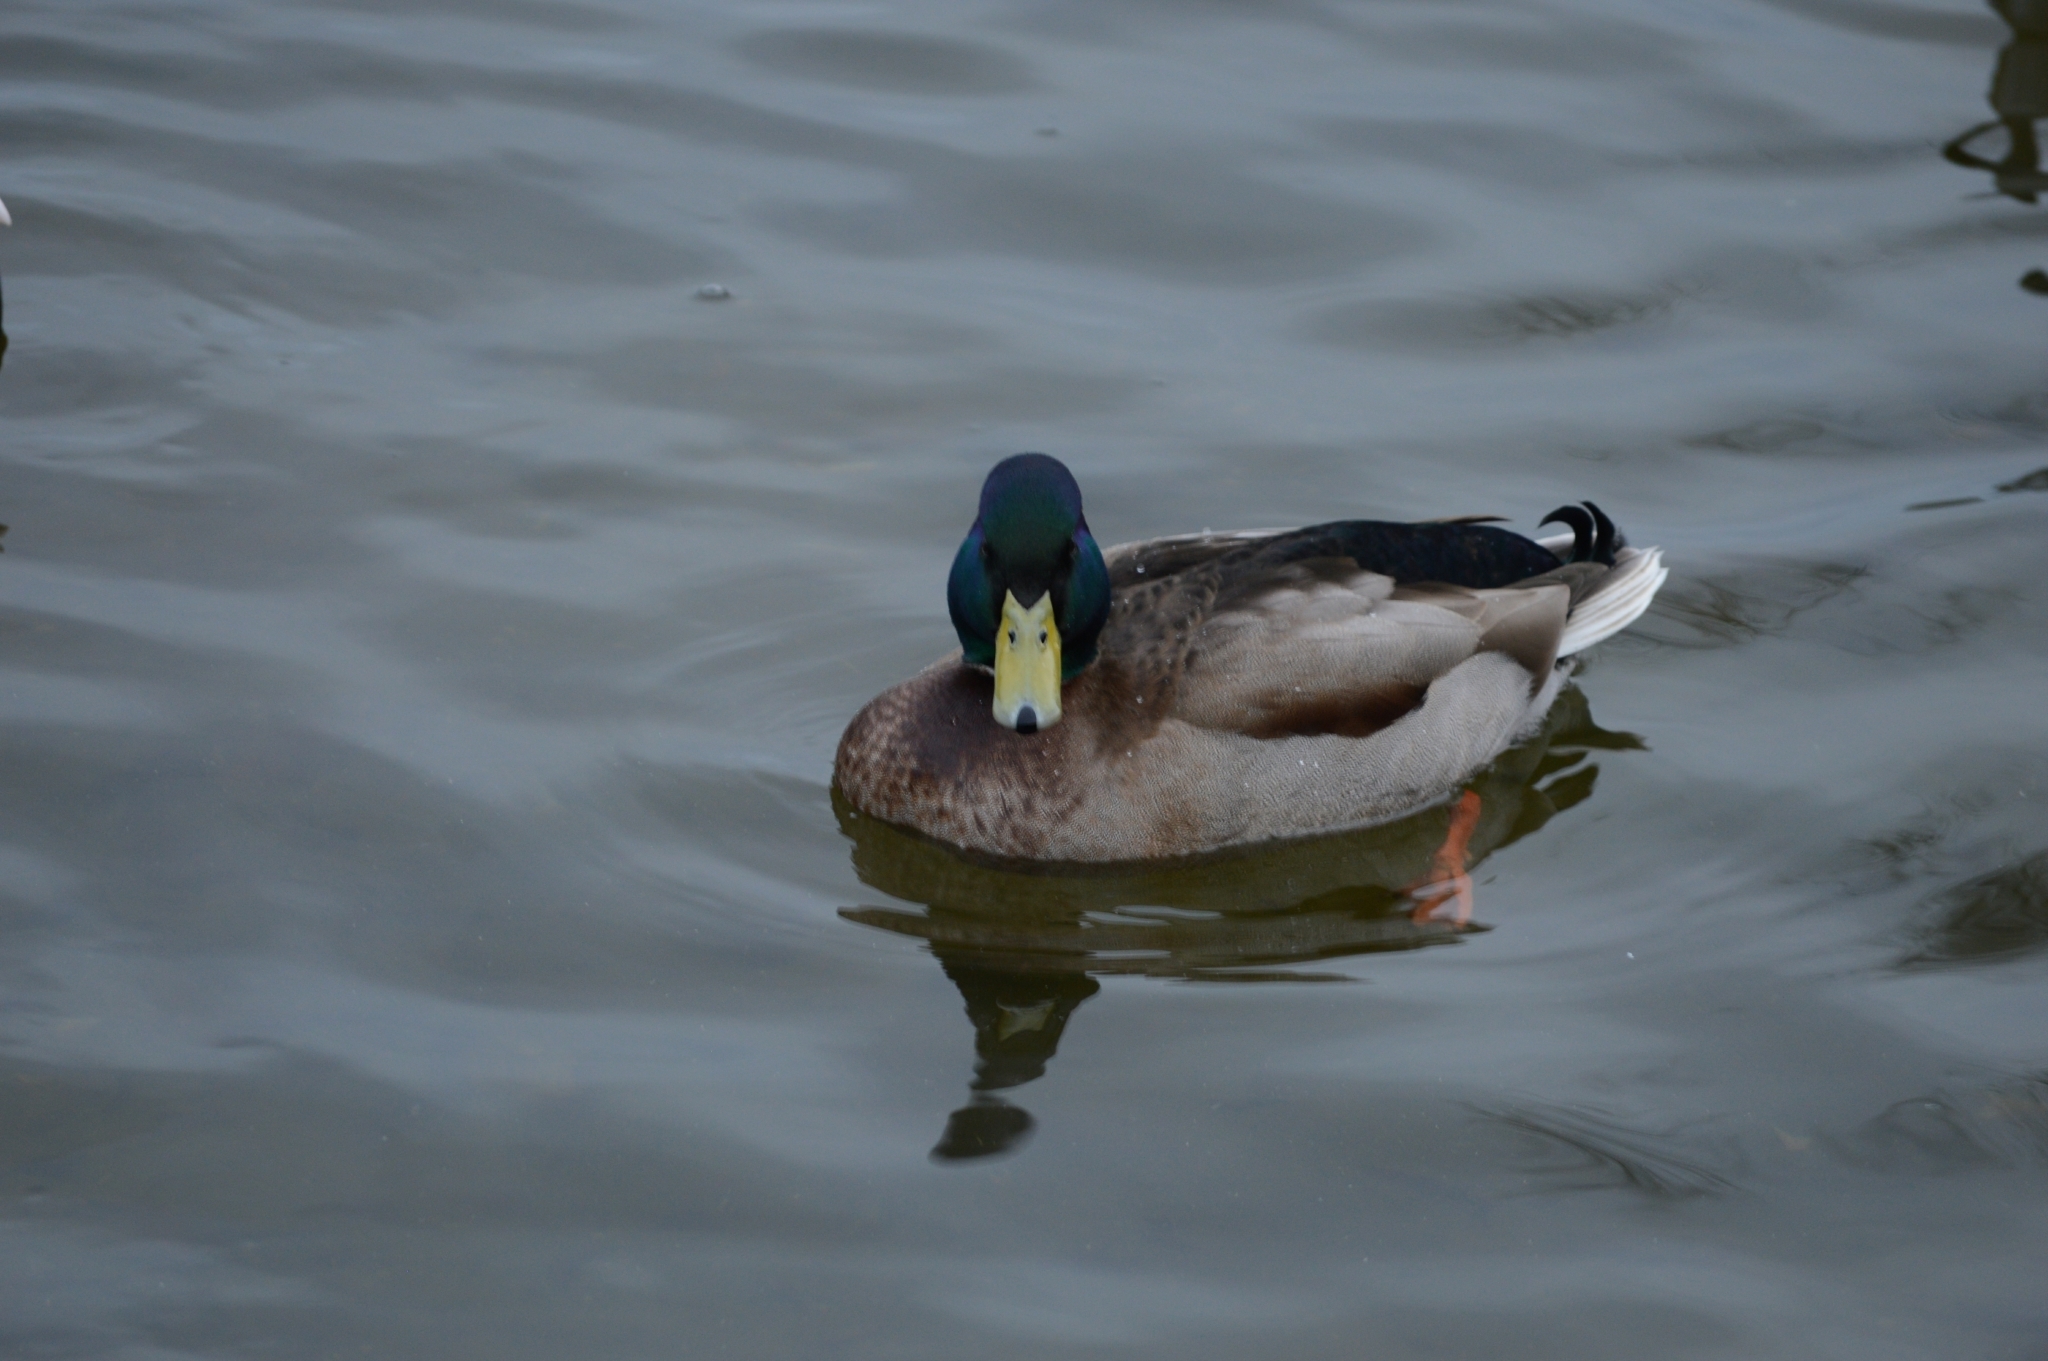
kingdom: Animalia
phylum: Chordata
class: Aves
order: Anseriformes
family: Anatidae
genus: Anas
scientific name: Anas platyrhynchos
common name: Mallard
